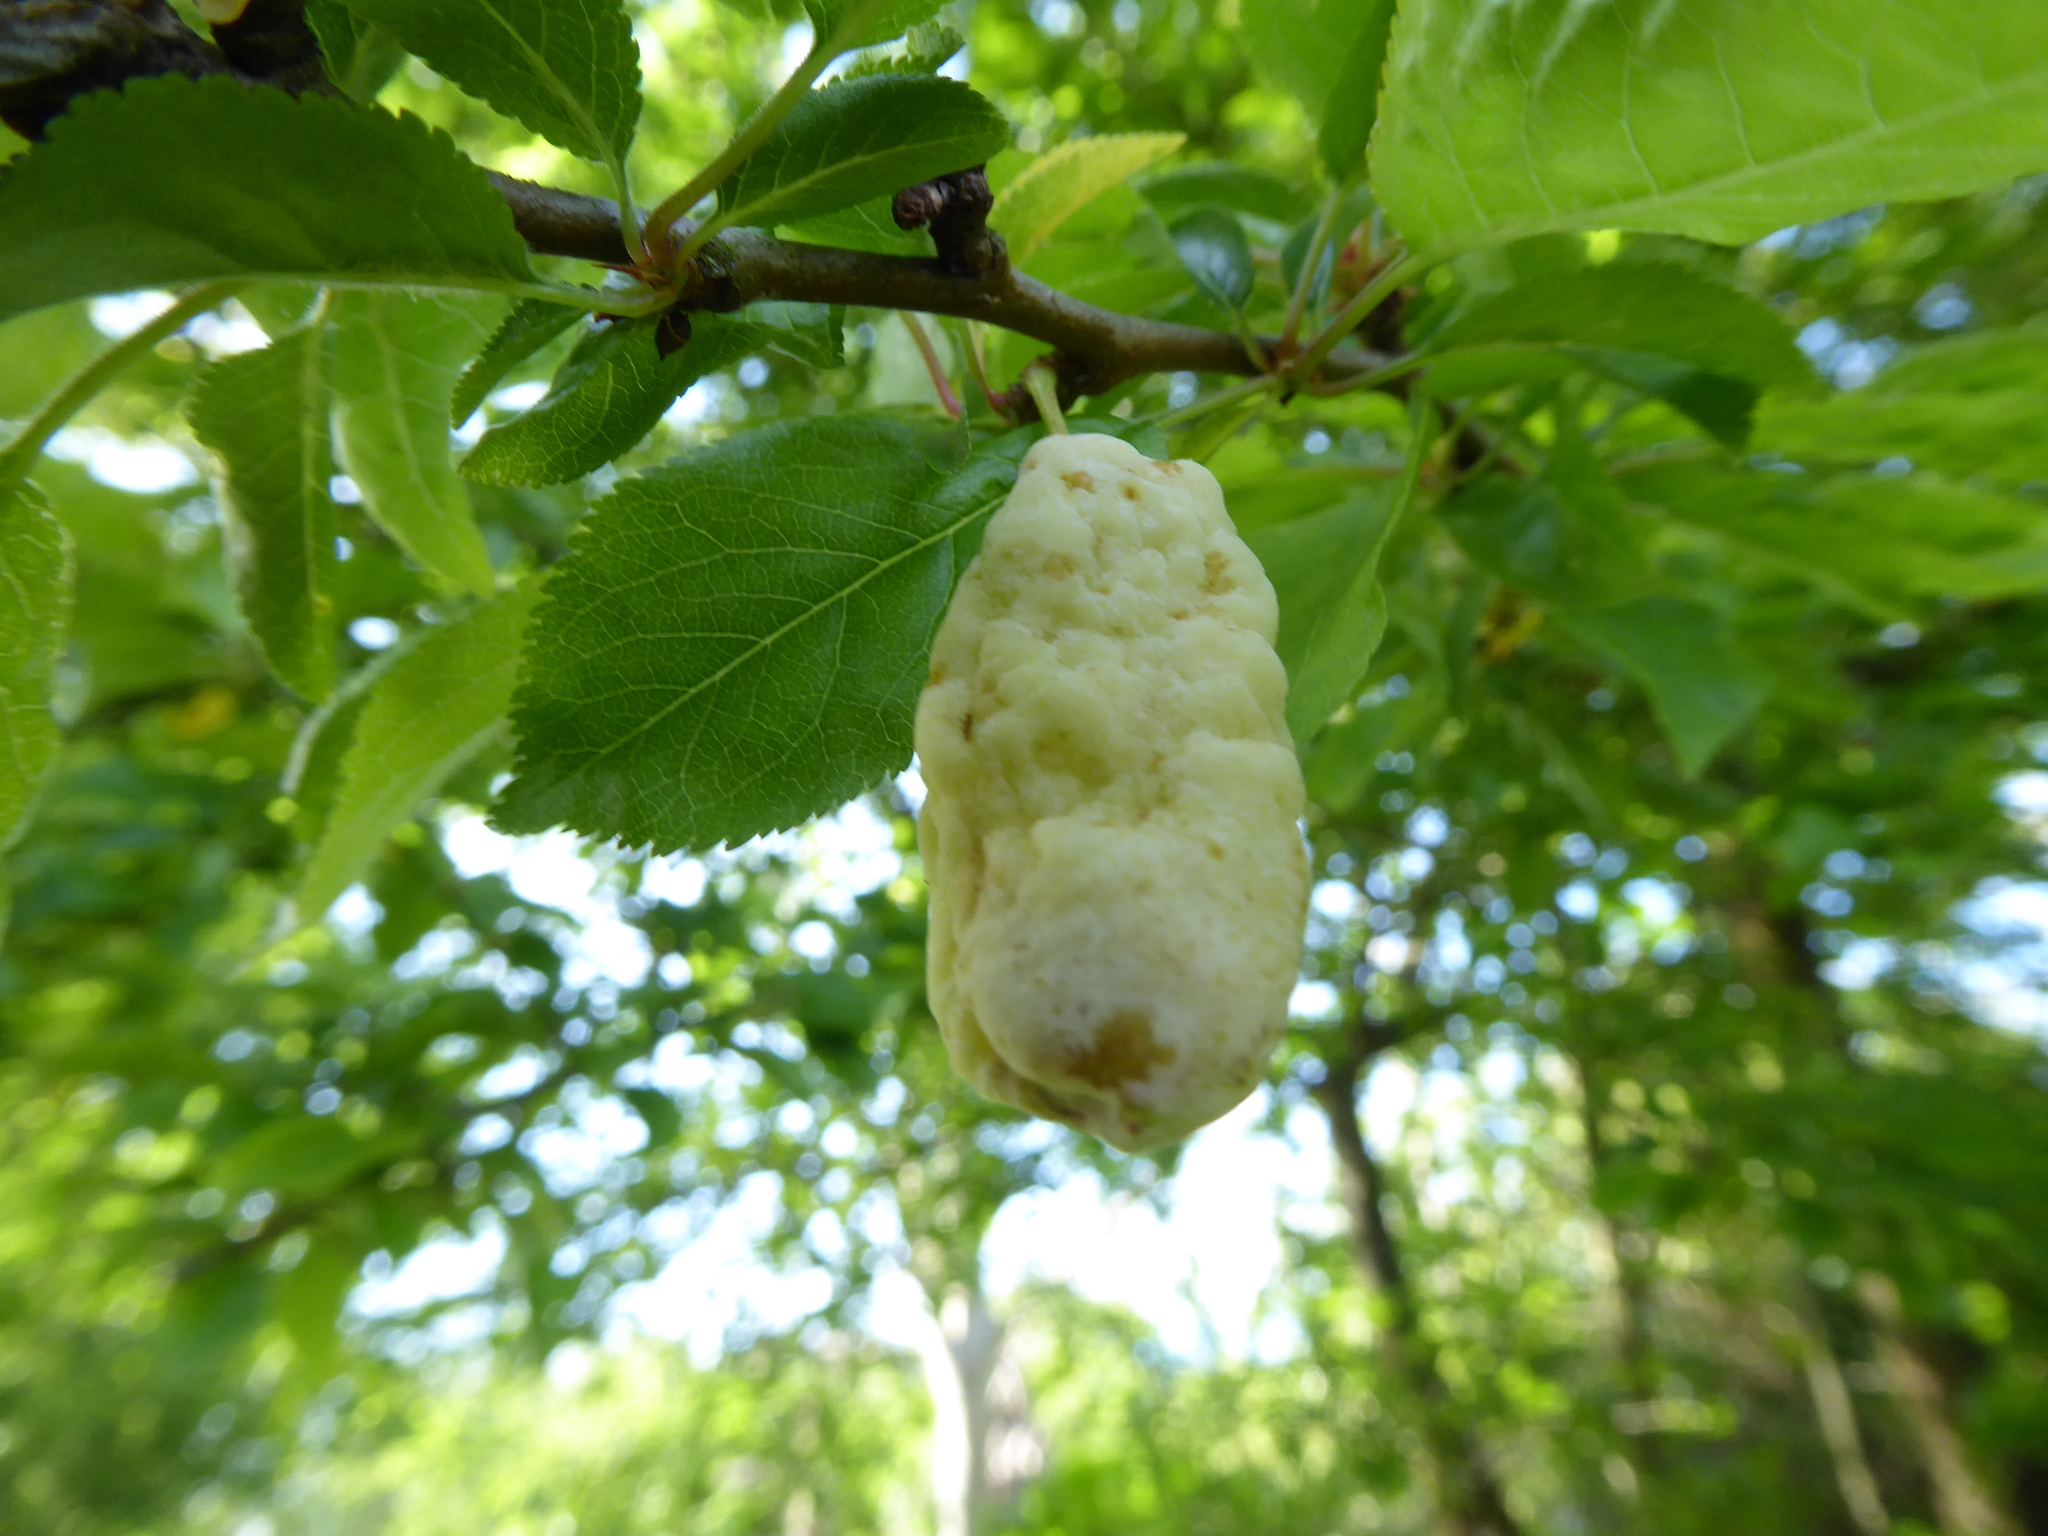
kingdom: Fungi
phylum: Ascomycota
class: Taphrinomycetes
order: Taphrinales
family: Taphrinaceae
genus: Taphrina
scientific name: Taphrina pruni
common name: Pocket plum
